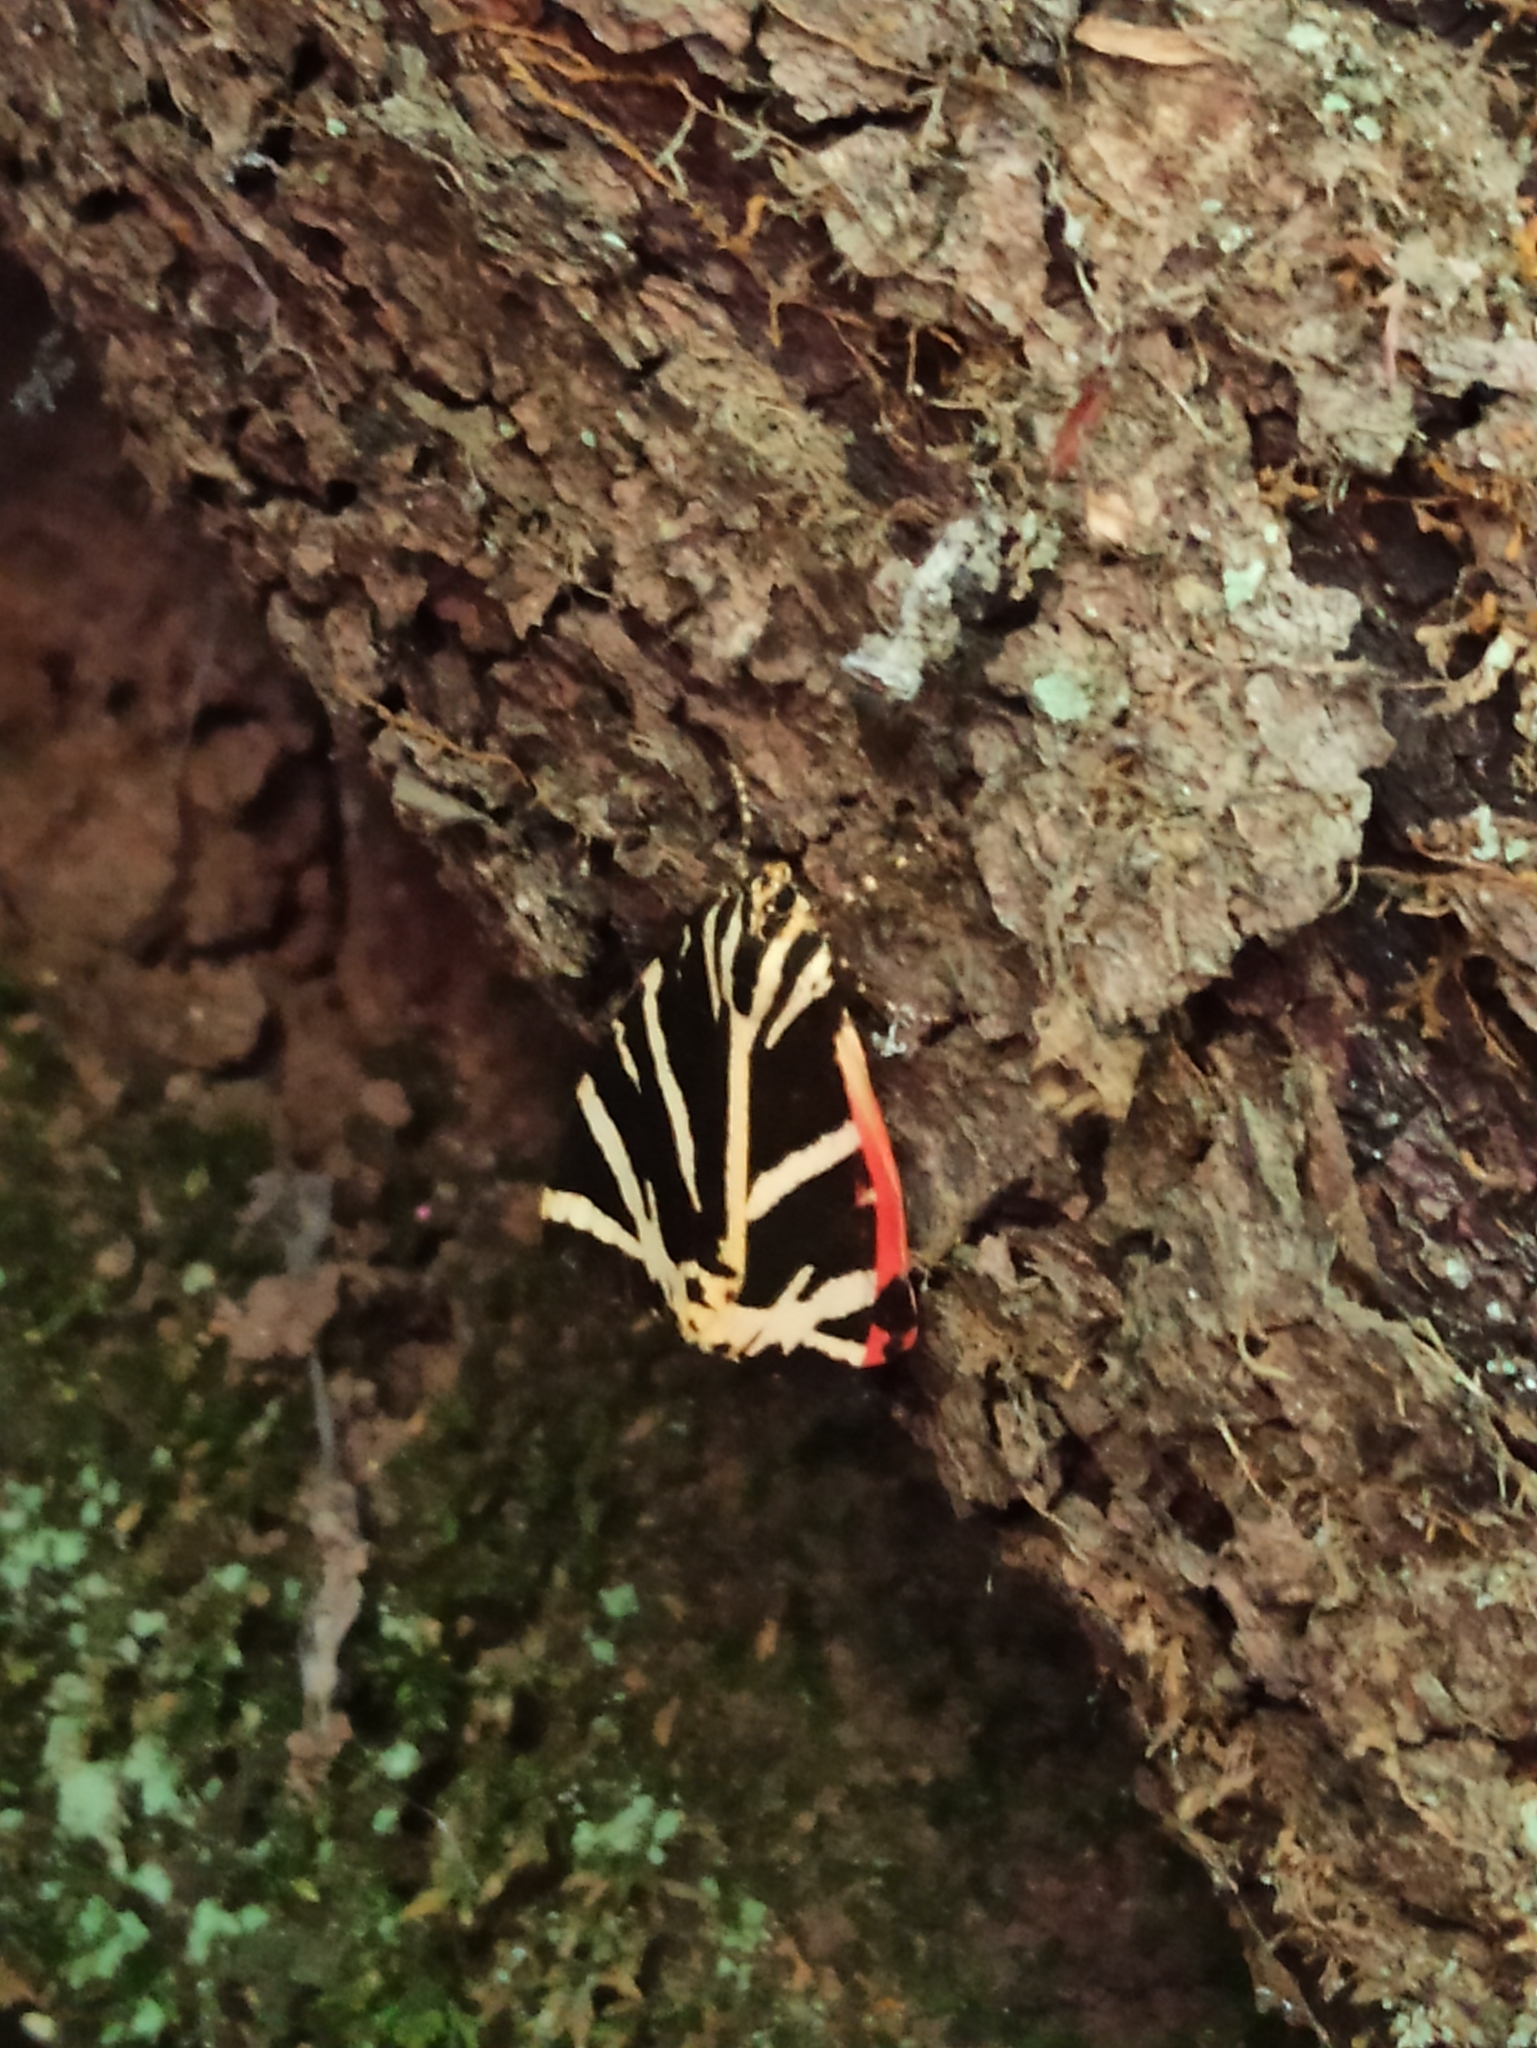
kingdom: Animalia
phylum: Arthropoda
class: Insecta
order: Lepidoptera
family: Erebidae
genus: Euplagia
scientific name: Euplagia quadripunctaria
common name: Jersey tiger
